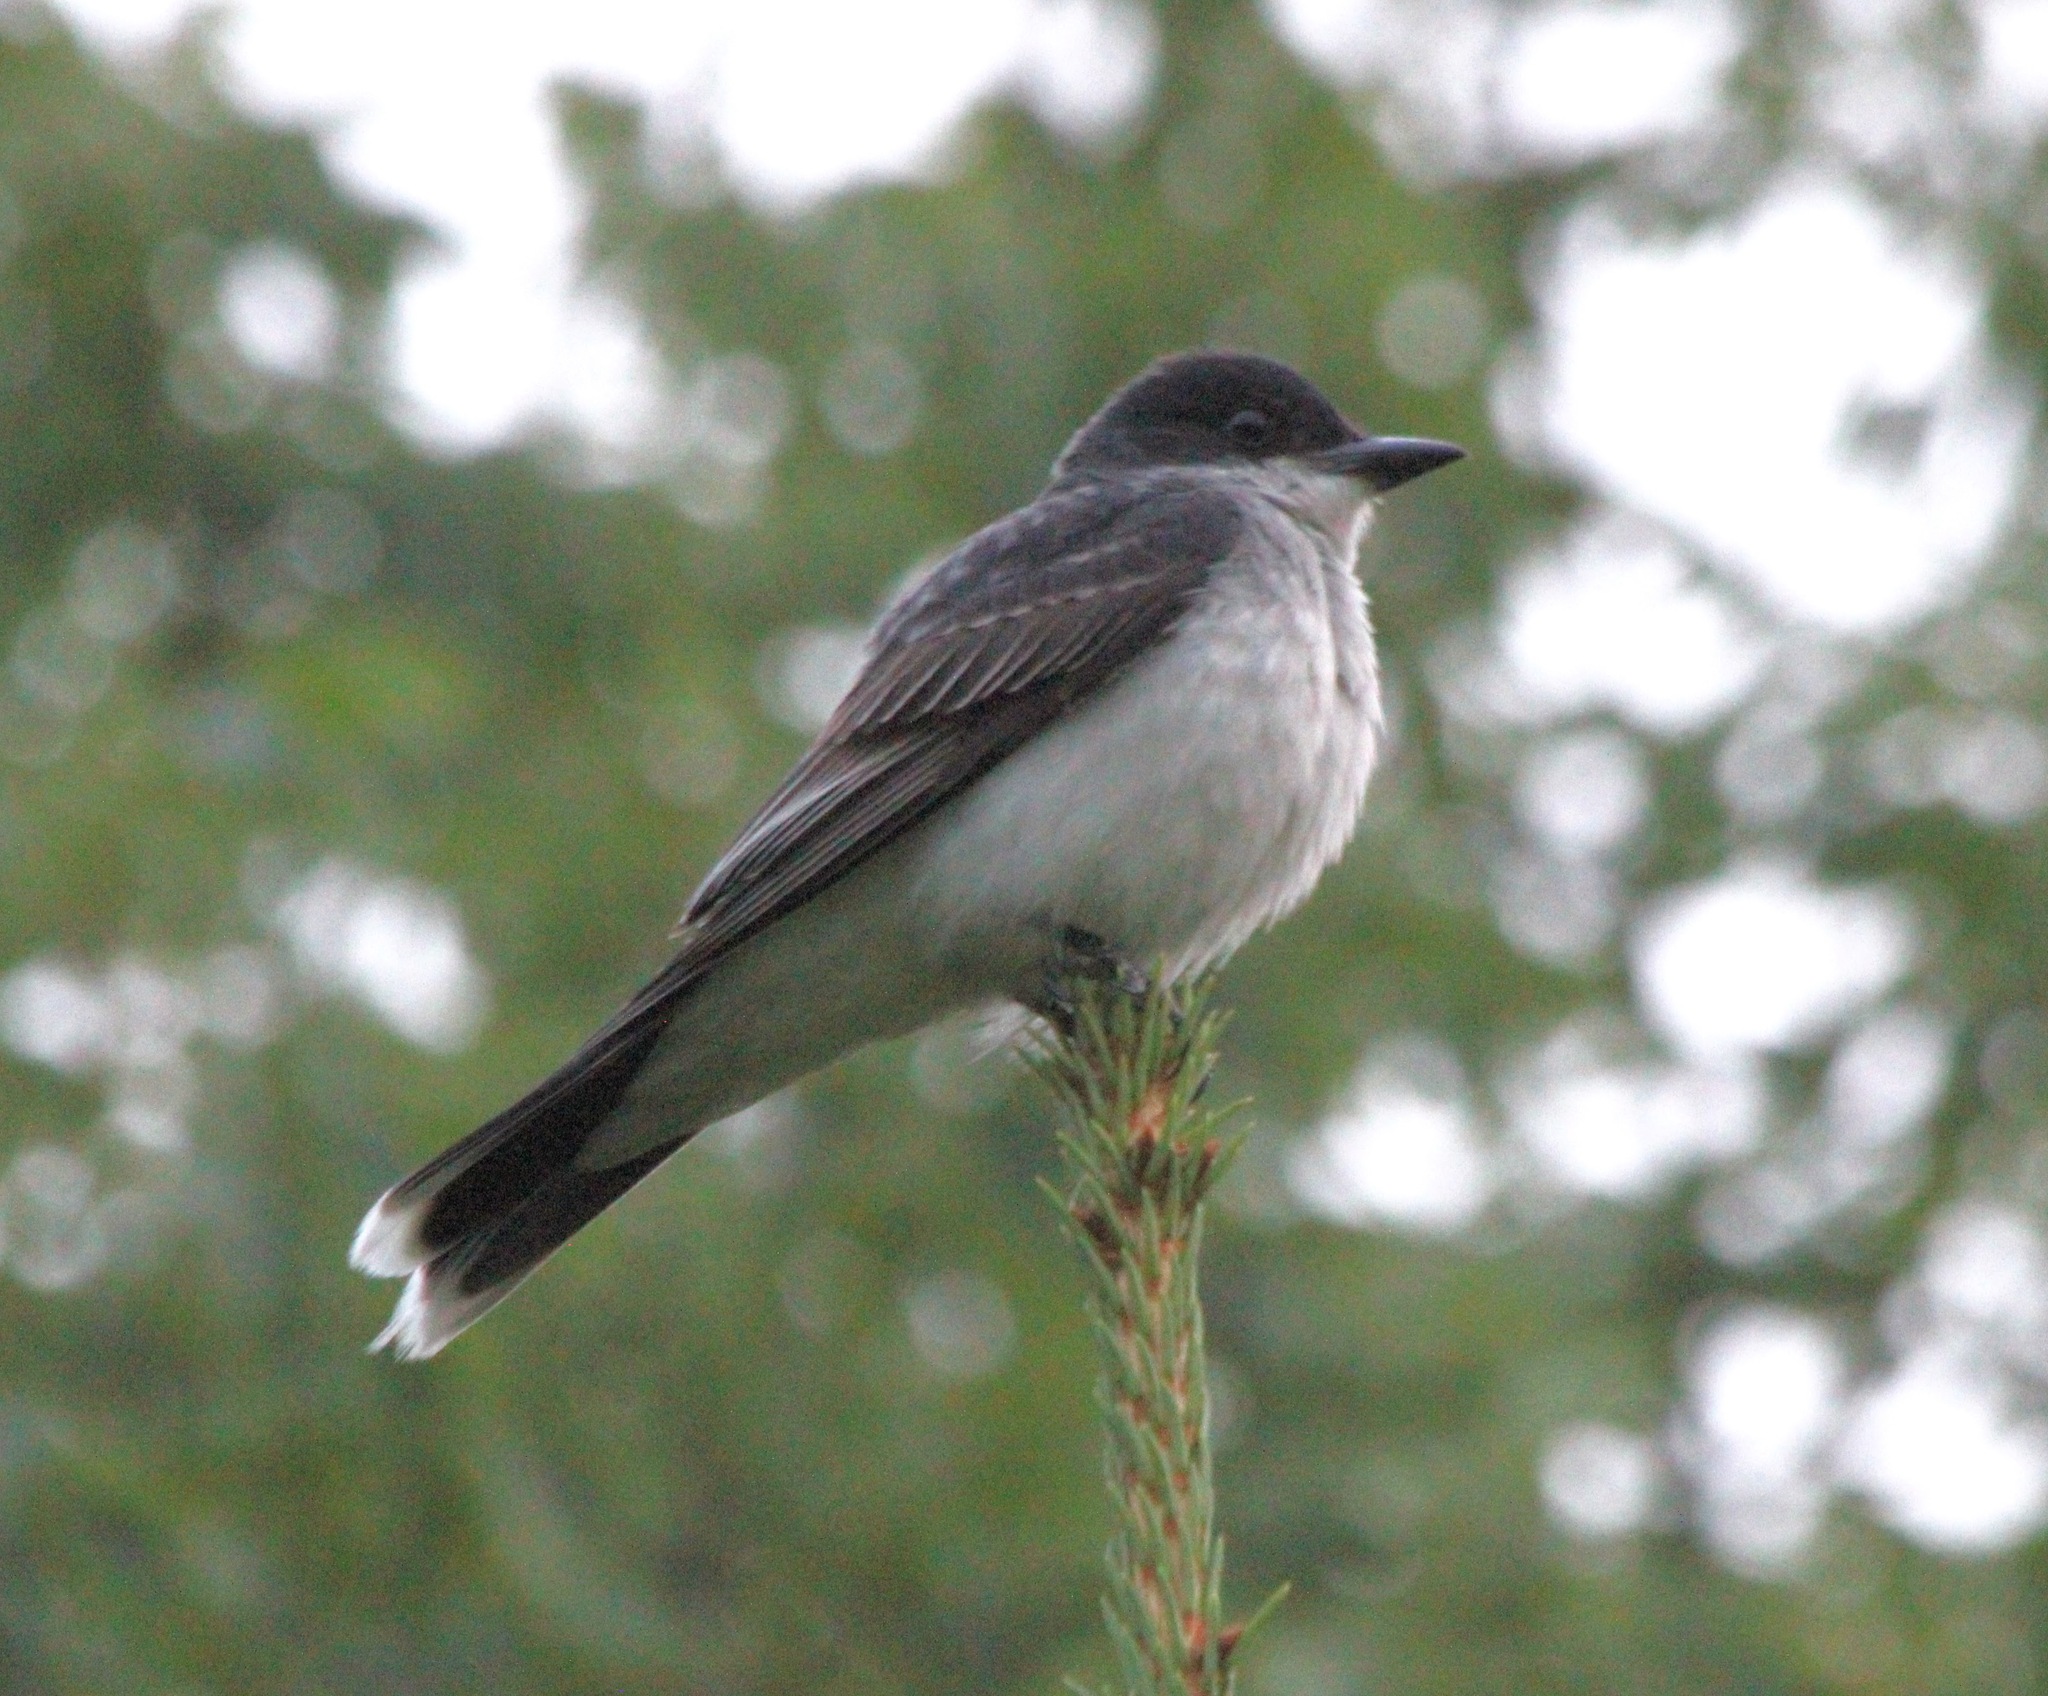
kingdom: Animalia
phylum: Chordata
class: Aves
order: Passeriformes
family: Tyrannidae
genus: Tyrannus
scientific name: Tyrannus tyrannus
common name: Eastern kingbird
